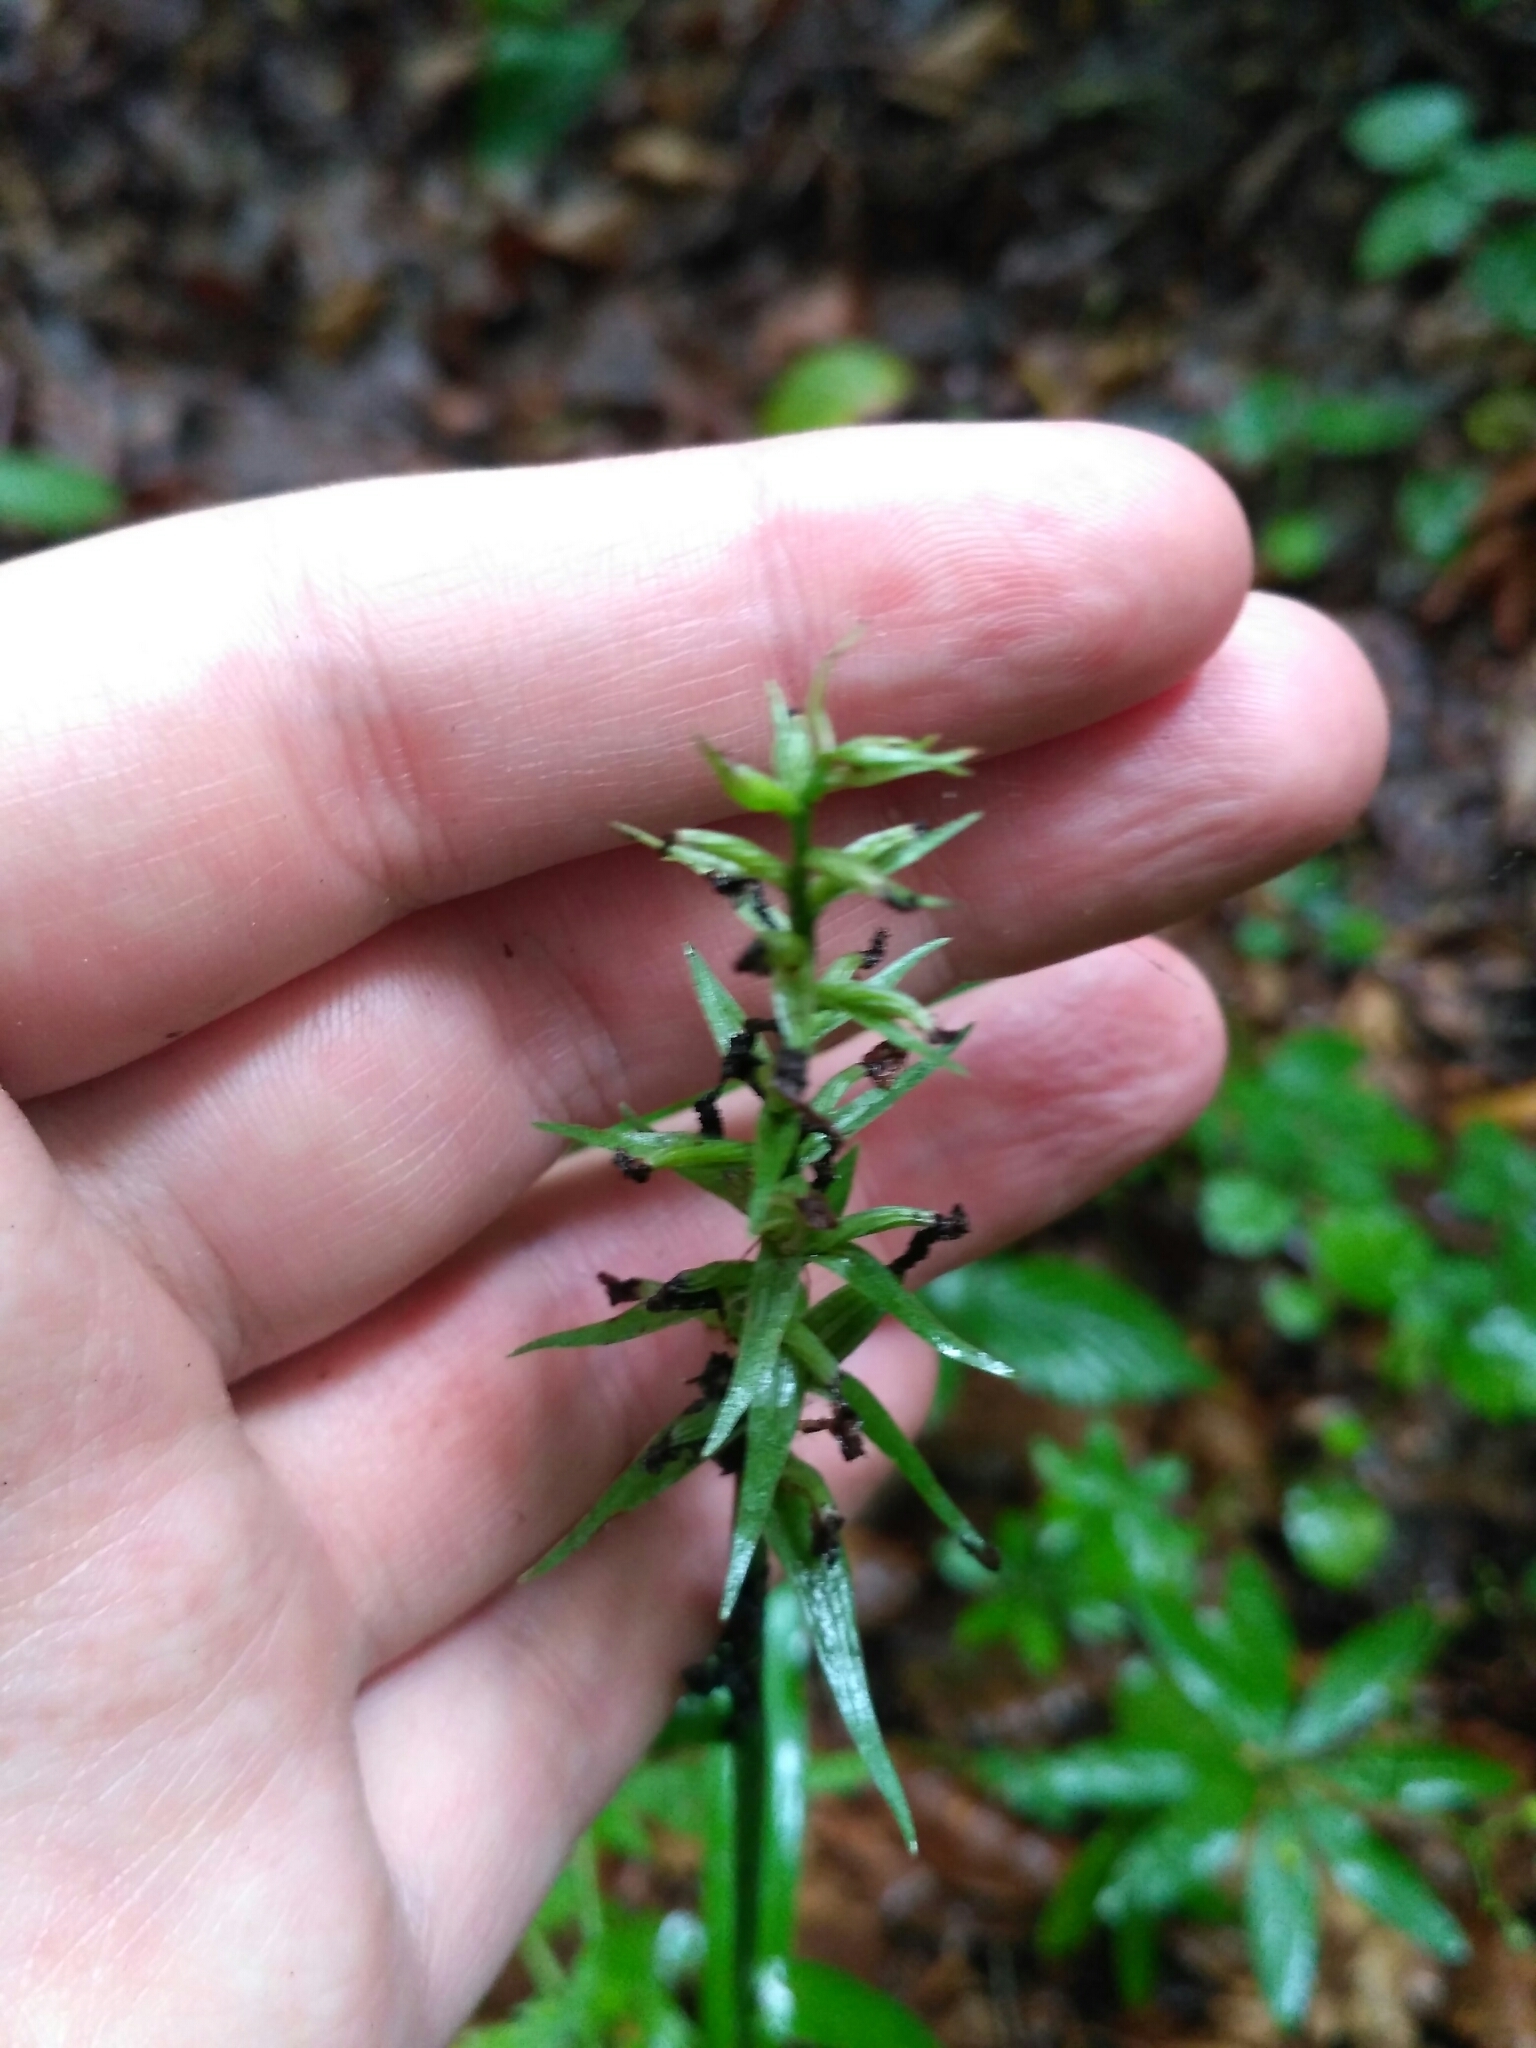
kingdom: Plantae
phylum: Tracheophyta
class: Liliopsida
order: Asparagales
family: Orchidaceae
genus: Dactylorhiza
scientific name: Dactylorhiza maculata
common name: Heath spotted-orchid
